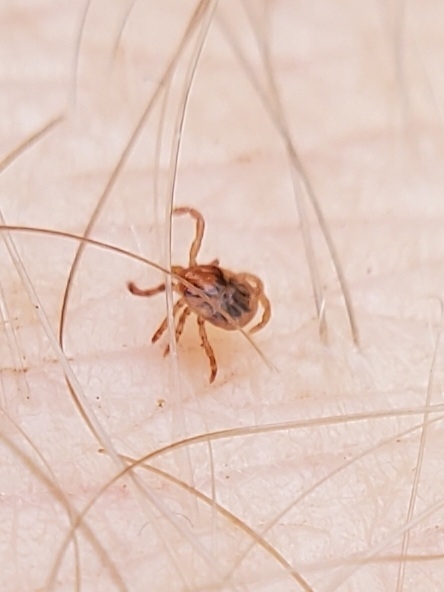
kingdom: Animalia
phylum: Arthropoda
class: Arachnida
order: Ixodida
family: Ixodidae
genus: Amblyomma
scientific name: Amblyomma americanum
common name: Lone star tick
